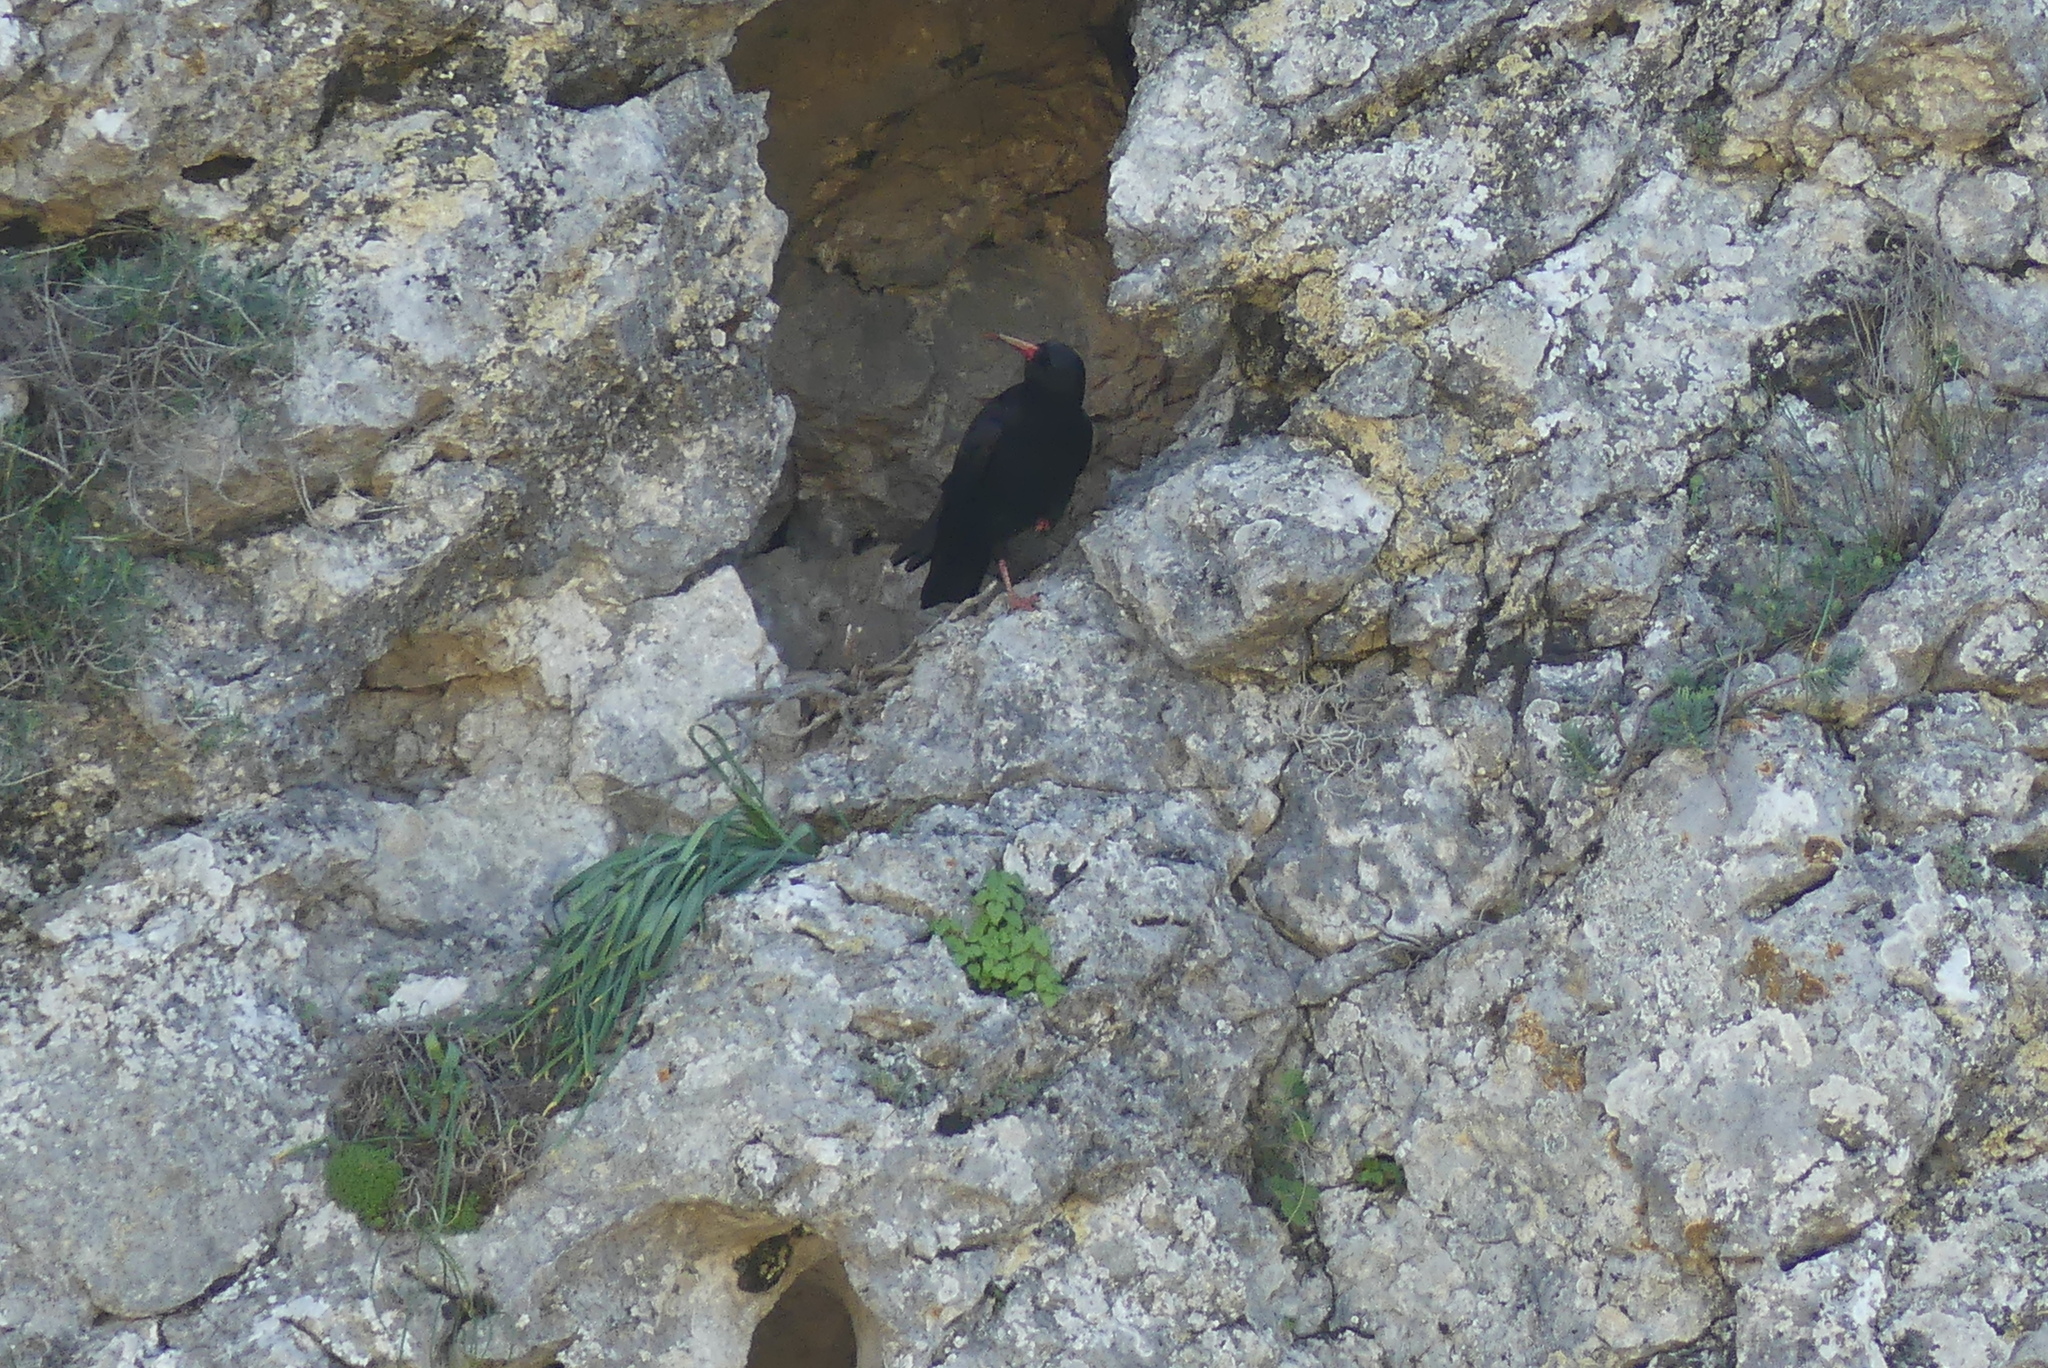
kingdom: Animalia
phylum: Chordata
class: Aves
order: Passeriformes
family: Corvidae
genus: Pyrrhocorax
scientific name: Pyrrhocorax pyrrhocorax
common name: Red-billed chough
